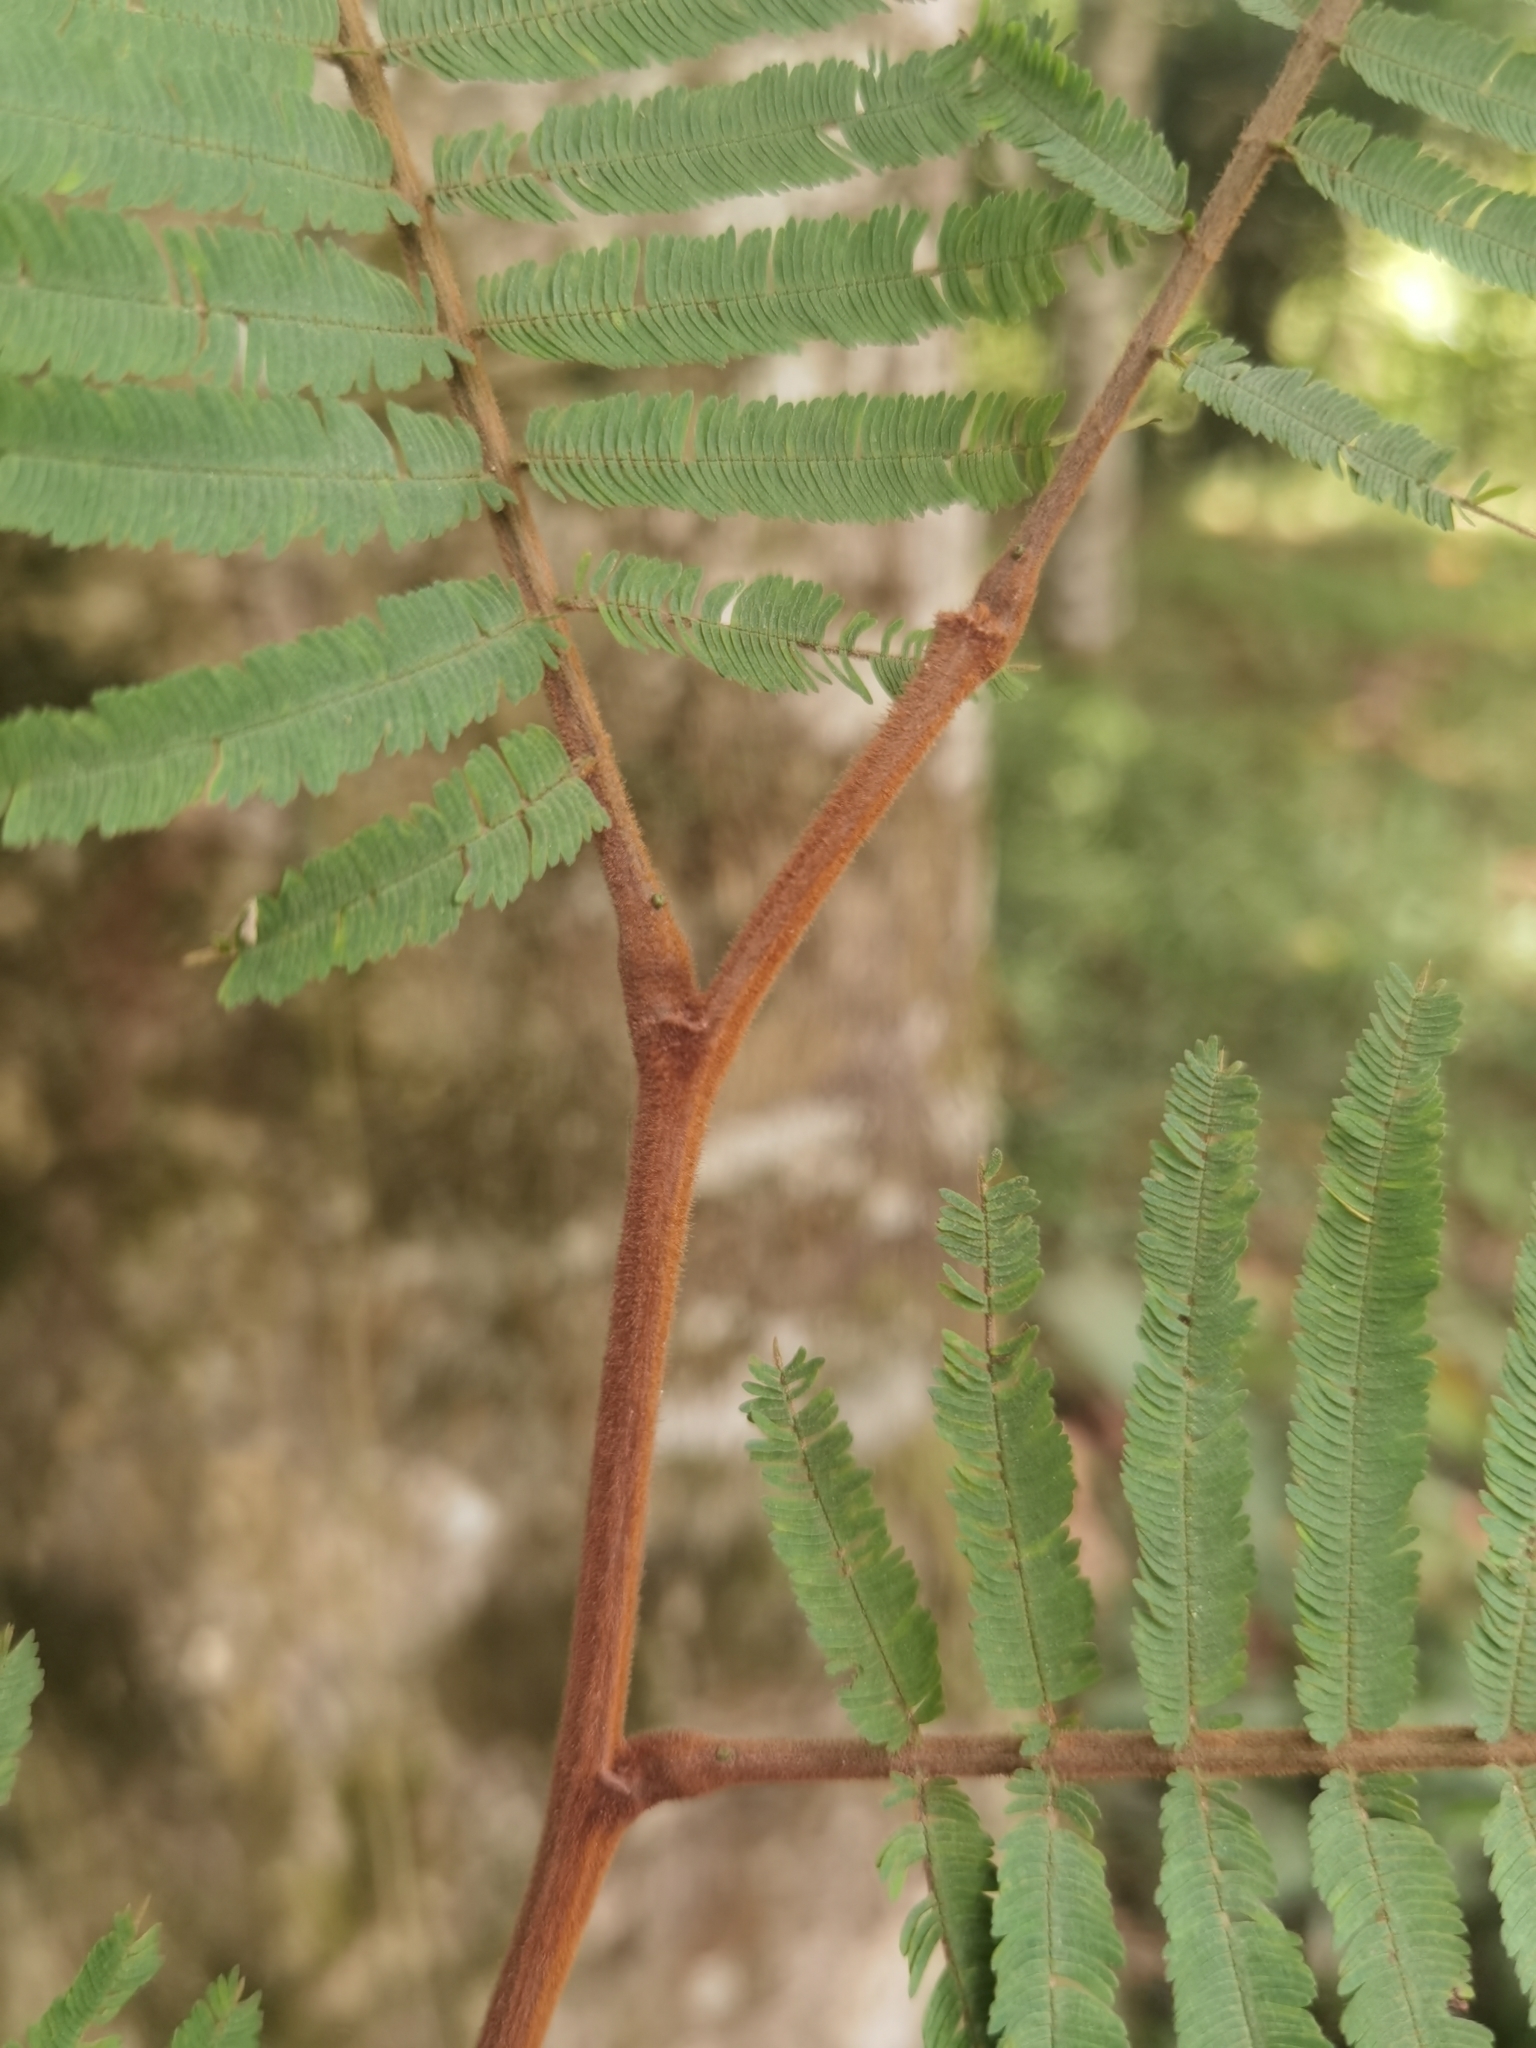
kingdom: Plantae
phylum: Tracheophyta
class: Magnoliopsida
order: Fabales
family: Fabaceae
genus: Enterolobium
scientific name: Enterolobium schomburgkii
